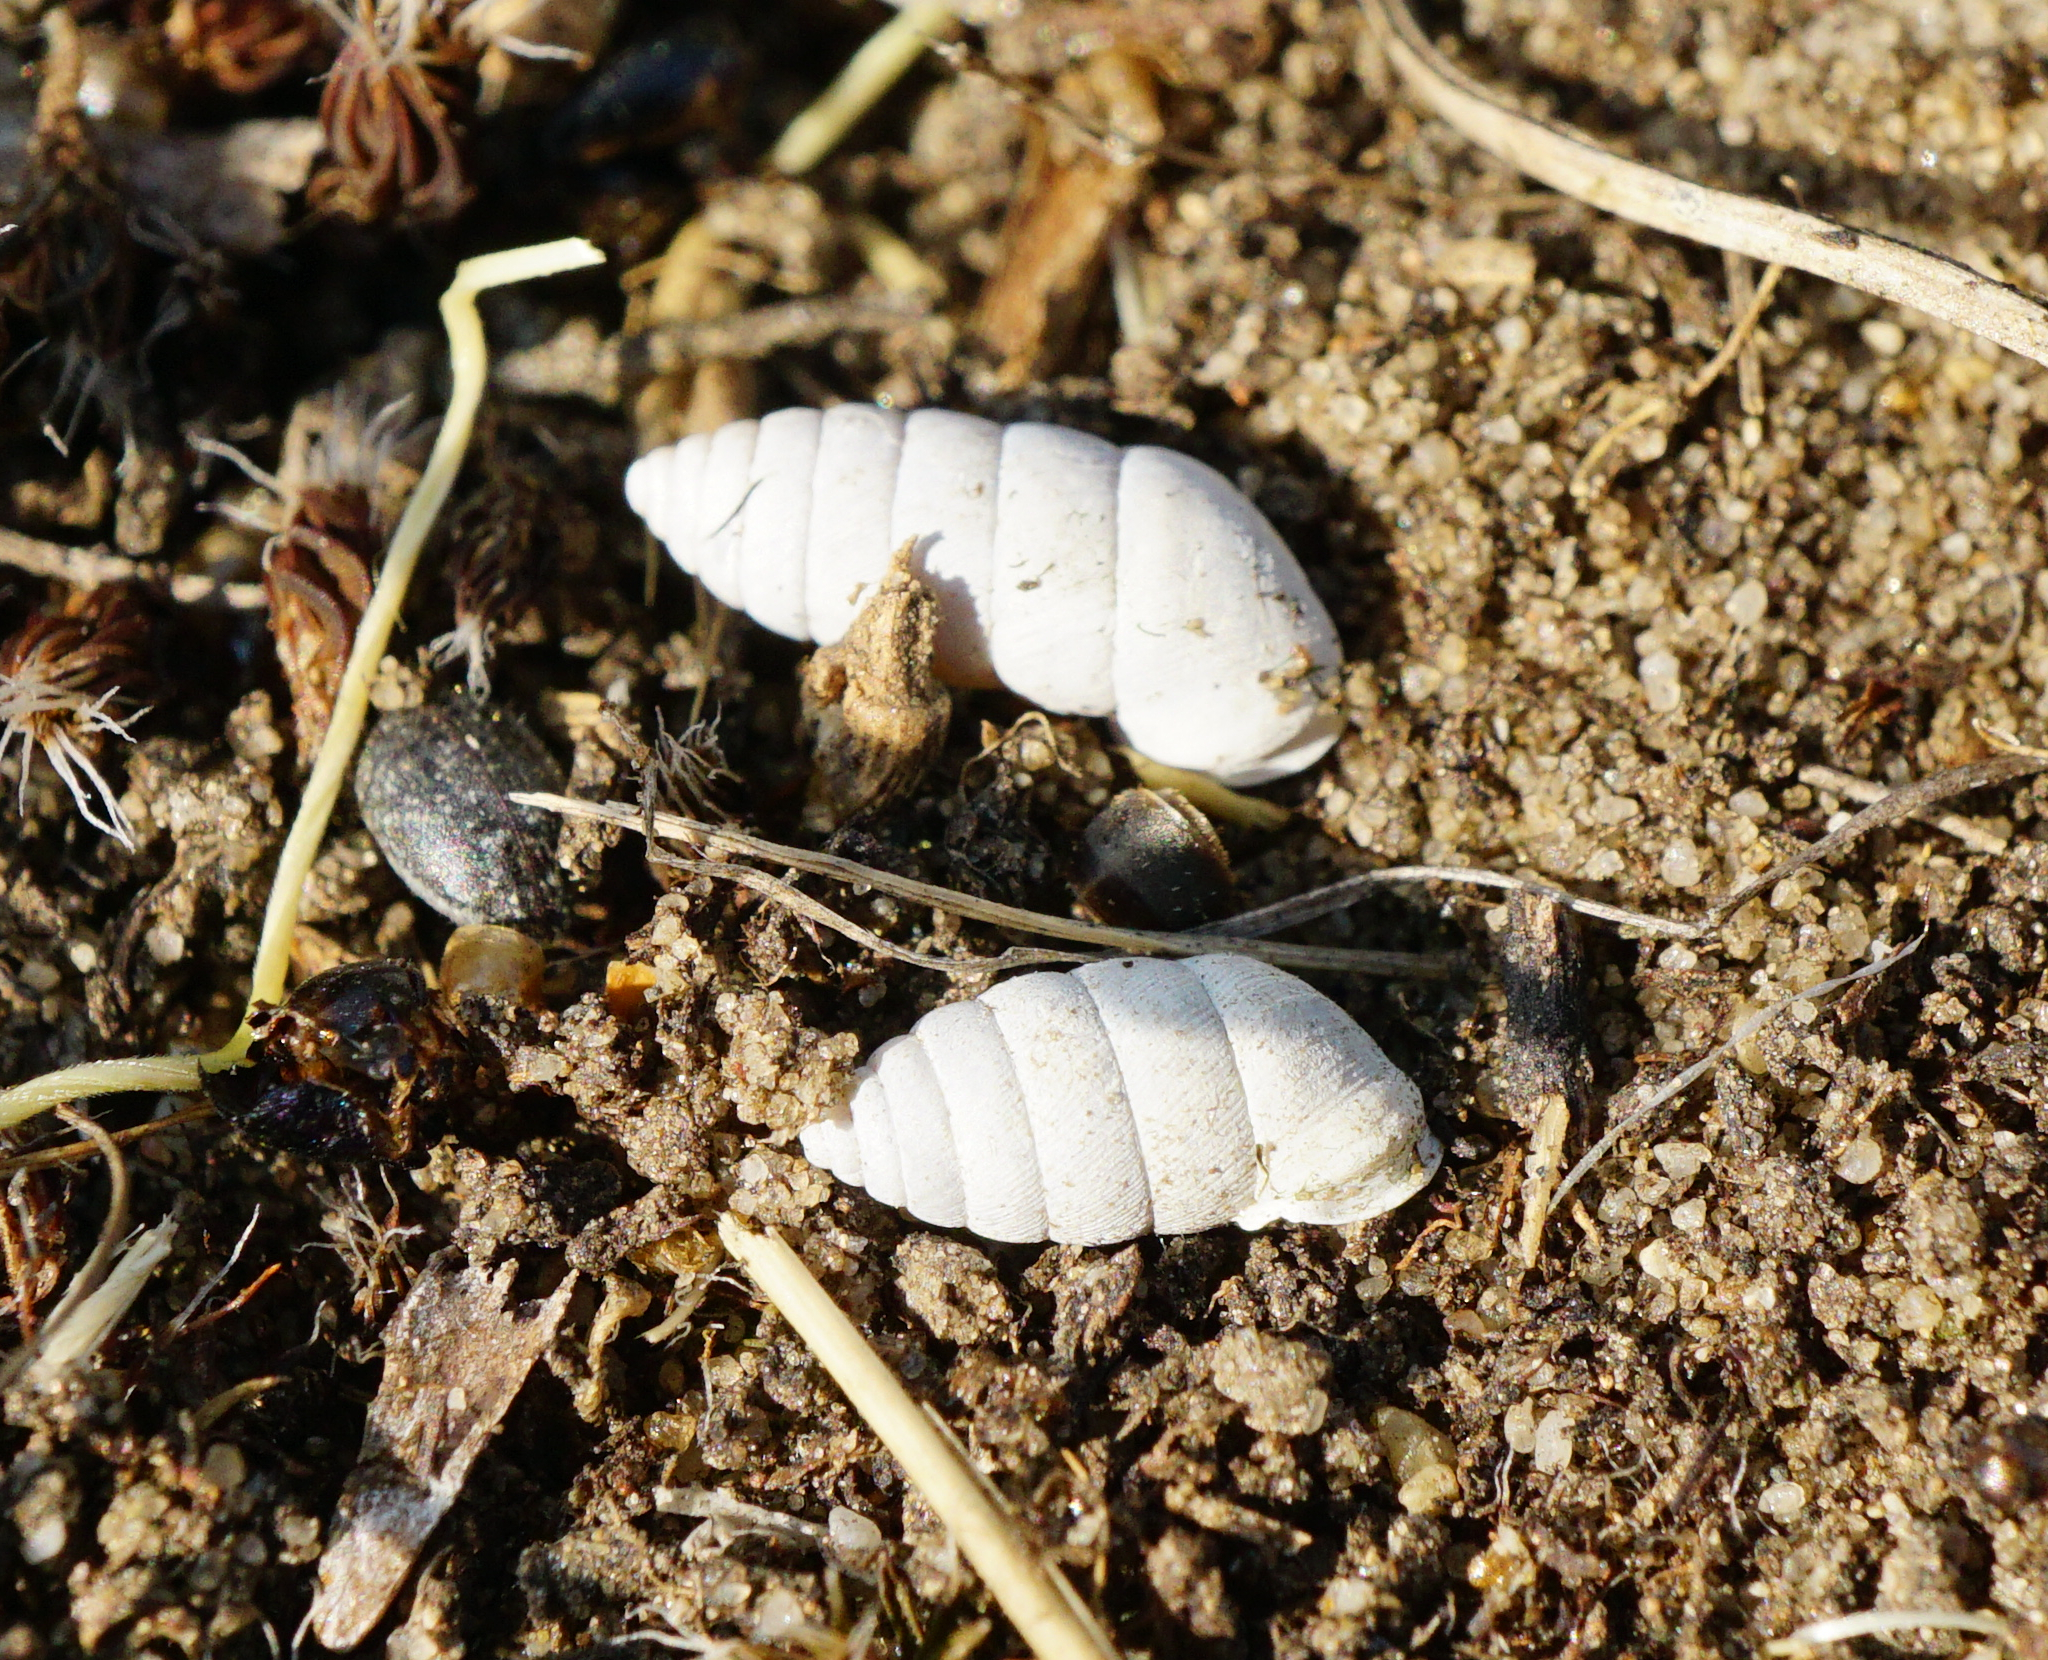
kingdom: Animalia
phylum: Mollusca
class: Gastropoda
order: Stylommatophora
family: Chondrinidae
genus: Granaria
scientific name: Granaria frumentum
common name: An air-breathing land snail
